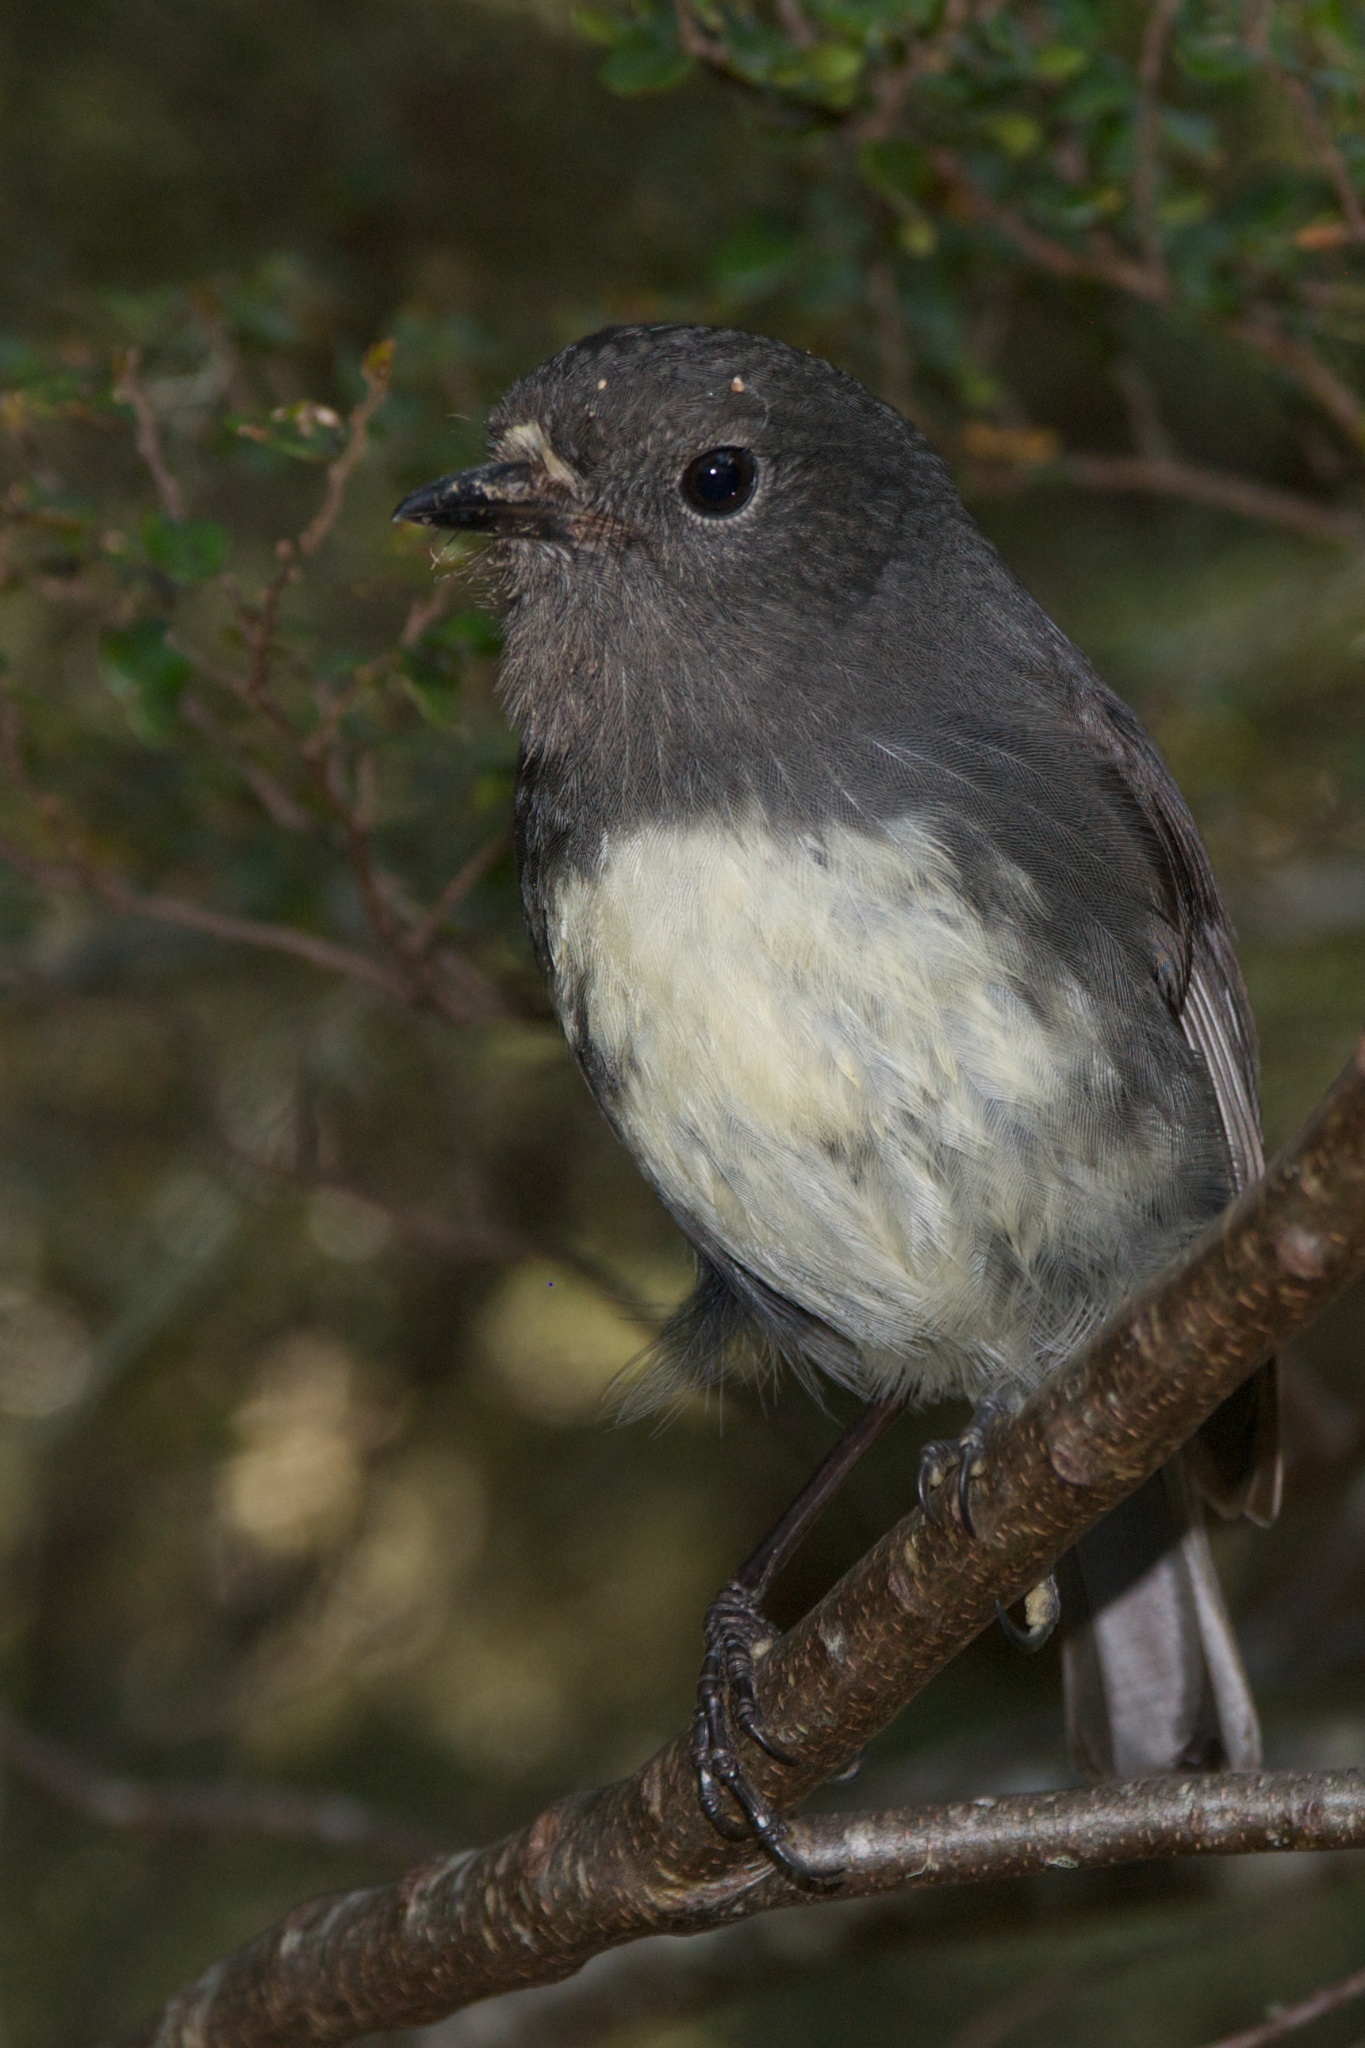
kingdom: Animalia
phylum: Chordata
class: Aves
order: Passeriformes
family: Petroicidae
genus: Petroica
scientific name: Petroica australis
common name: New zealand robin
